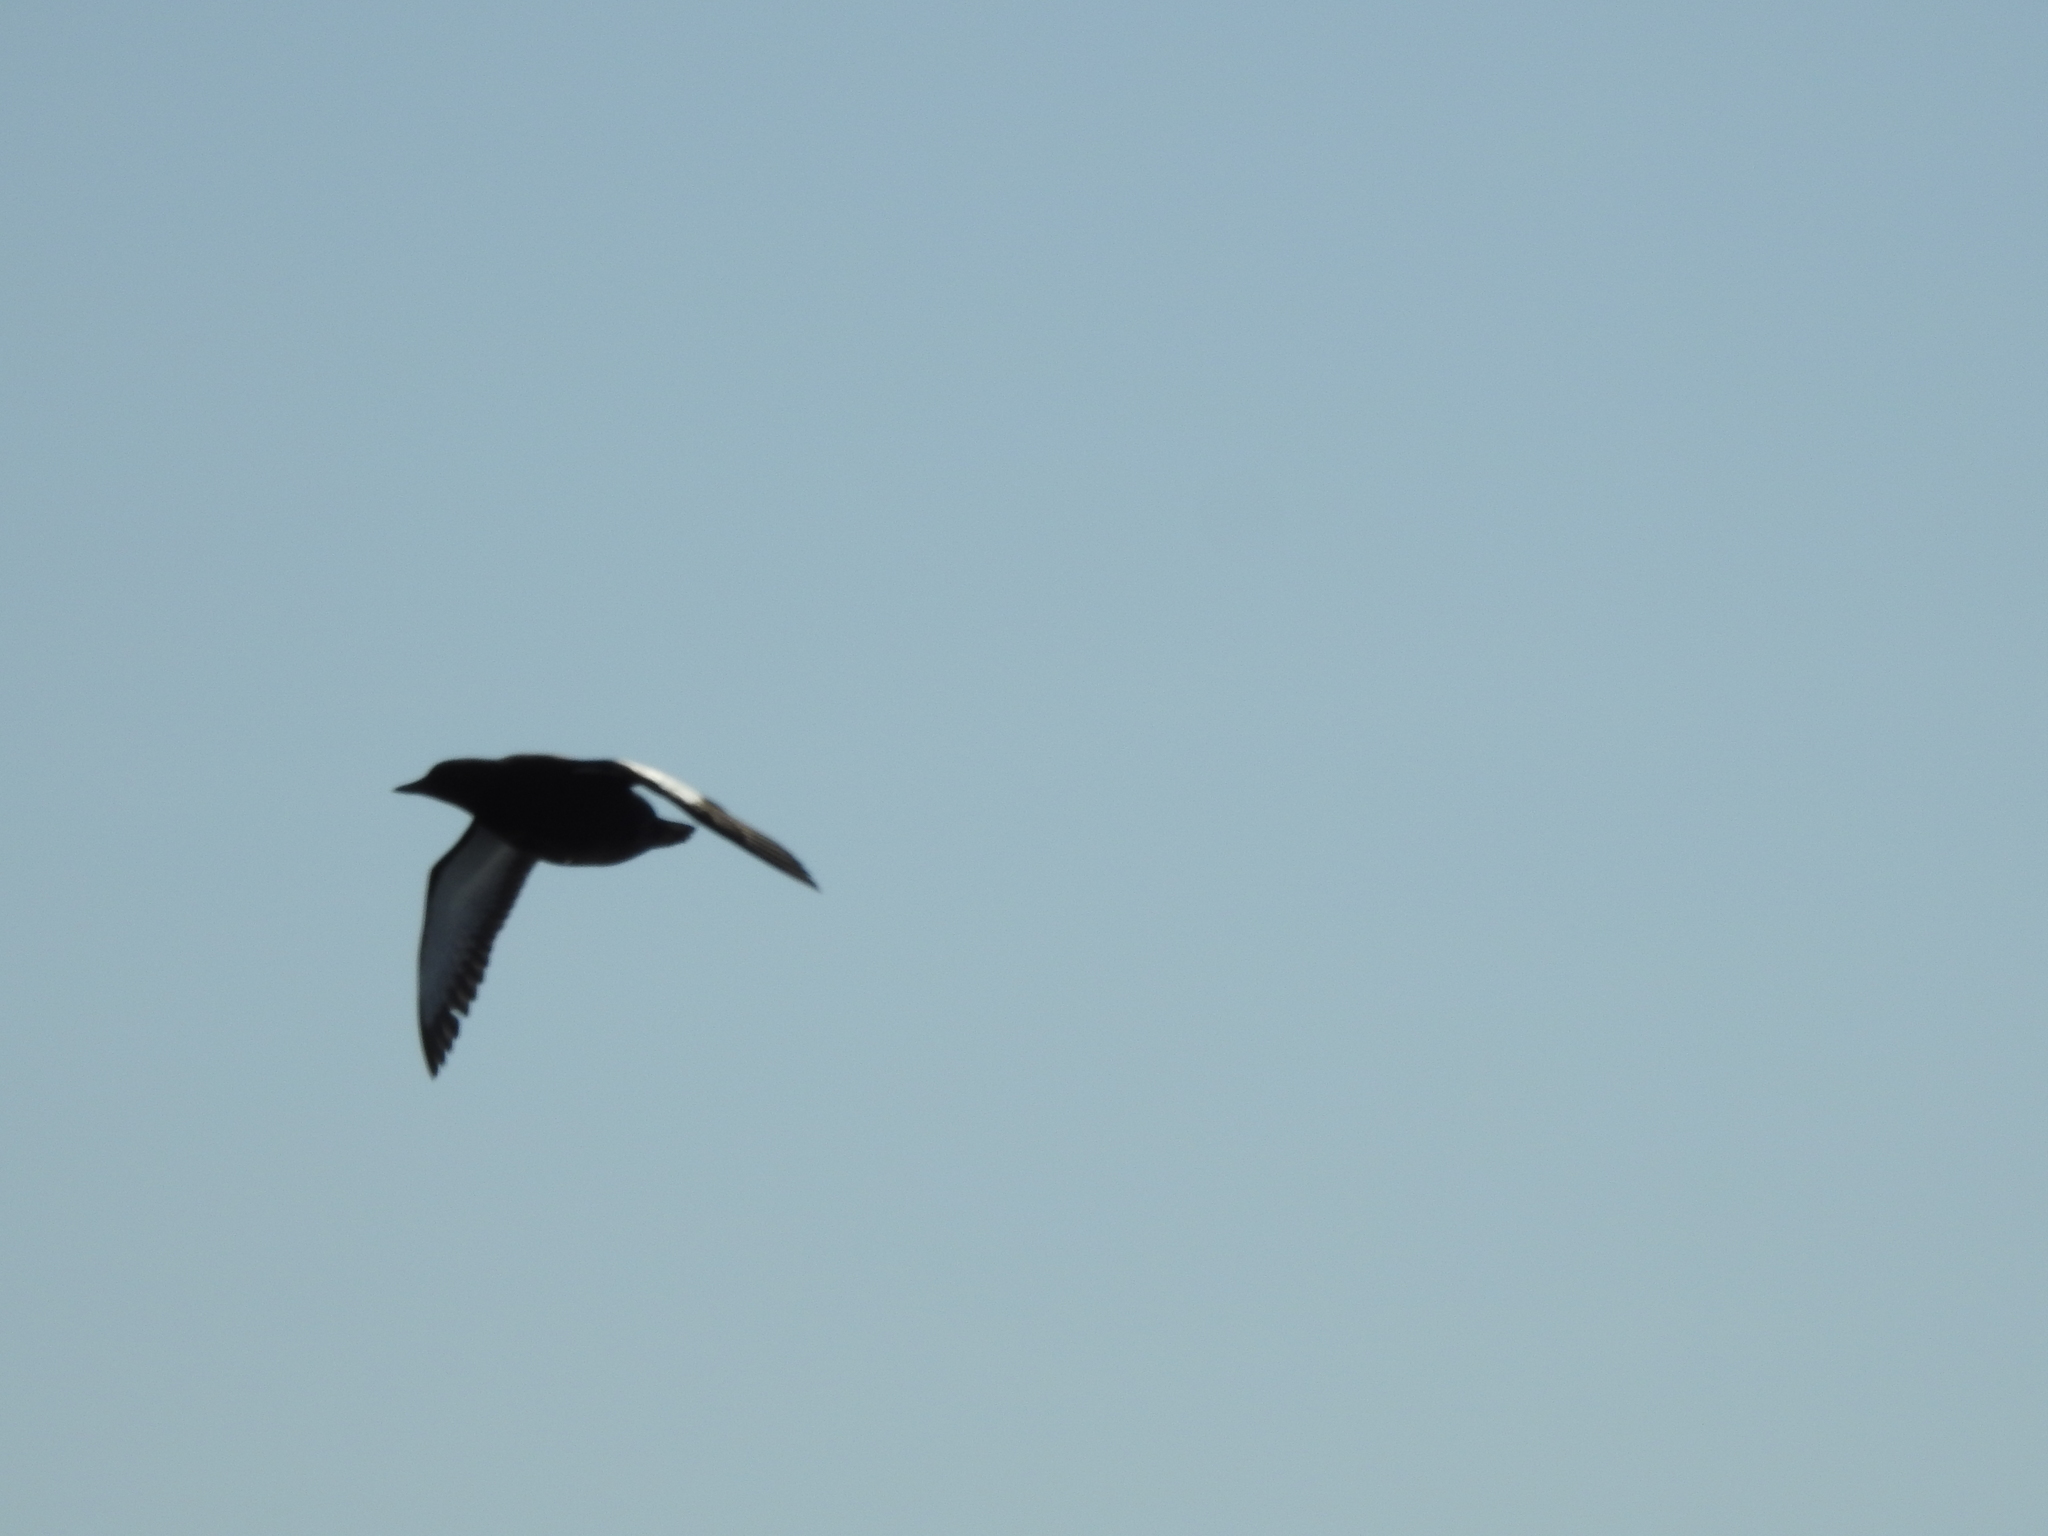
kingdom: Animalia
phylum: Chordata
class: Aves
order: Charadriiformes
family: Alcidae
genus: Cepphus
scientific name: Cepphus grylle
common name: Black guillemot
